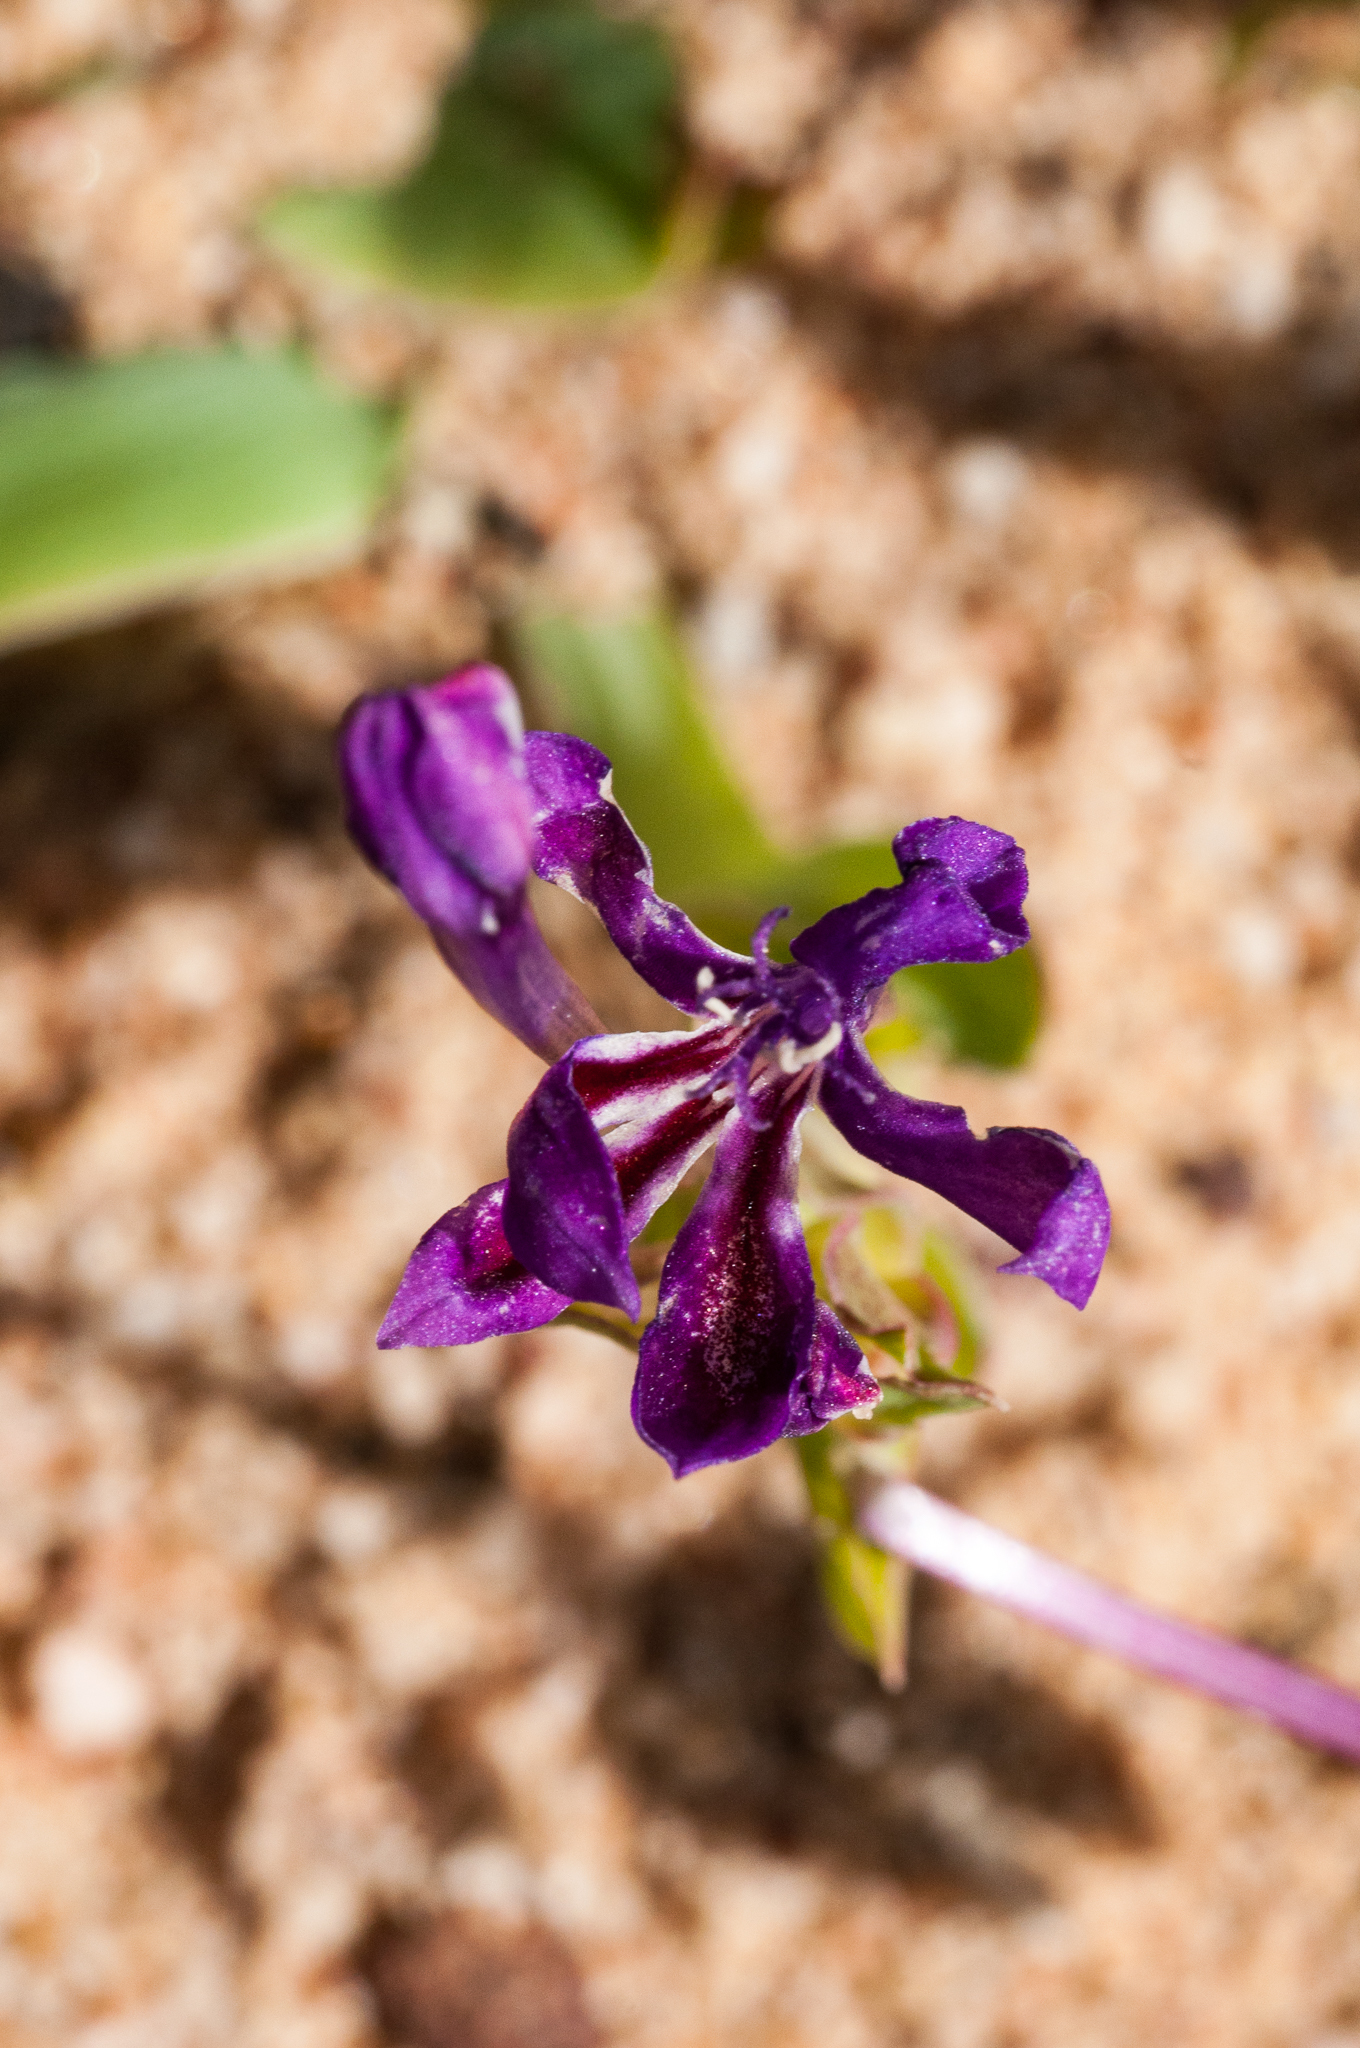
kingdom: Plantae
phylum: Tracheophyta
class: Liliopsida
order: Asparagales
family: Iridaceae
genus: Lapeirousia
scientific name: Lapeirousia jacquinii
